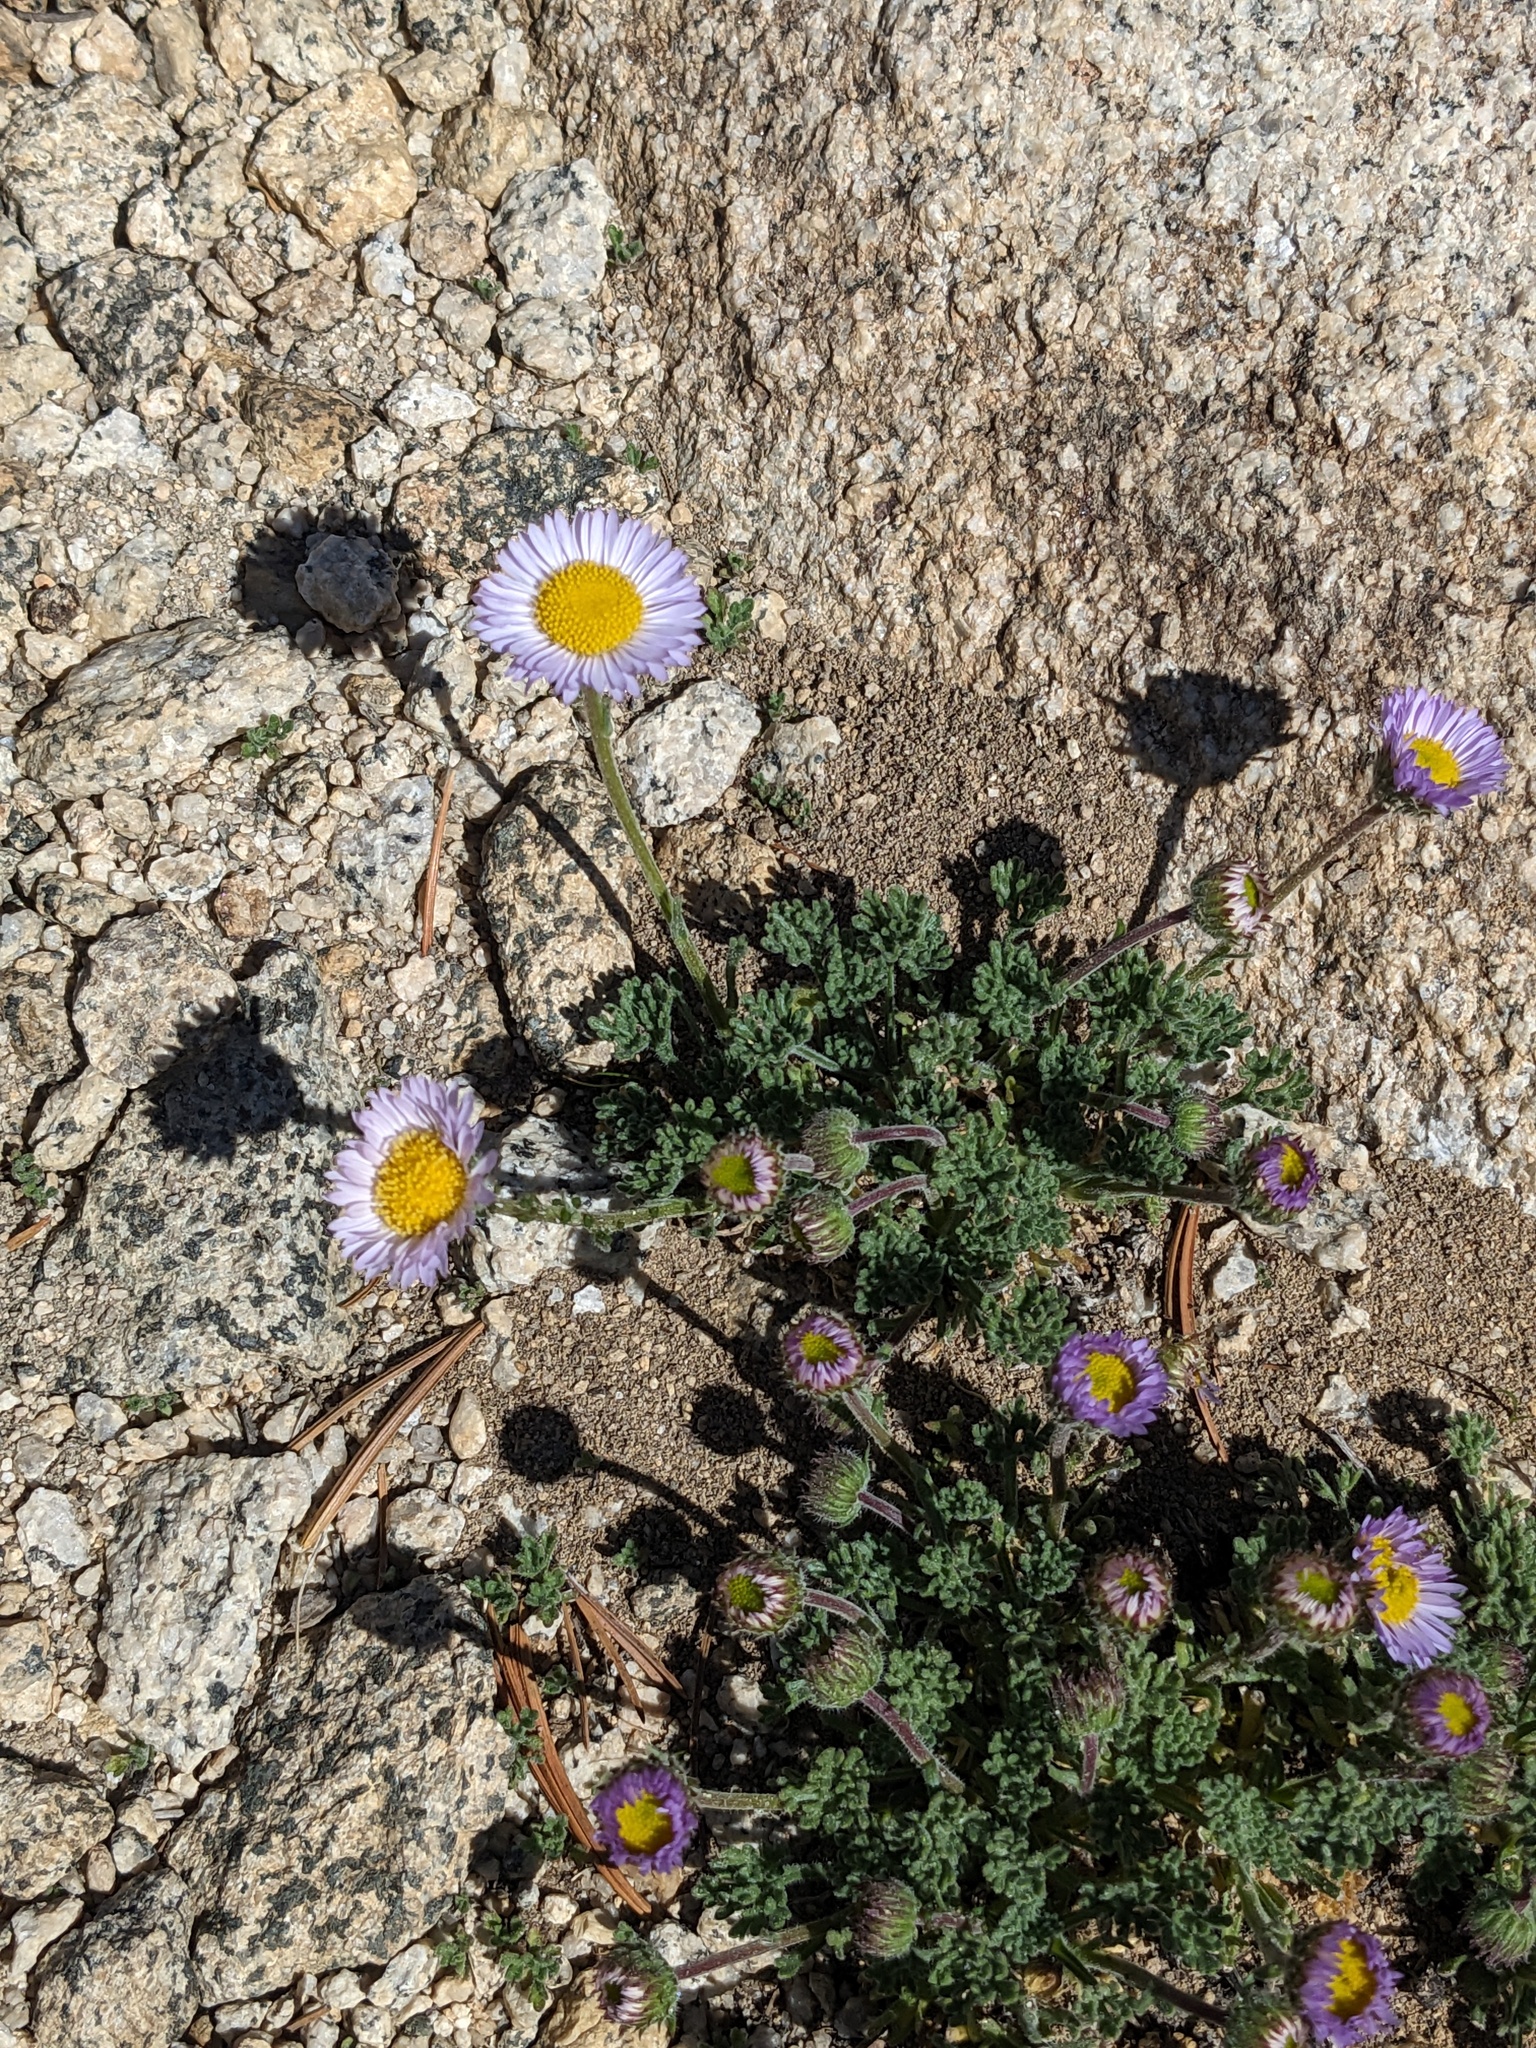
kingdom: Plantae
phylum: Tracheophyta
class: Magnoliopsida
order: Asterales
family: Asteraceae
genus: Erigeron
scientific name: Erigeron compositus
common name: Dwarf mountain fleabane
